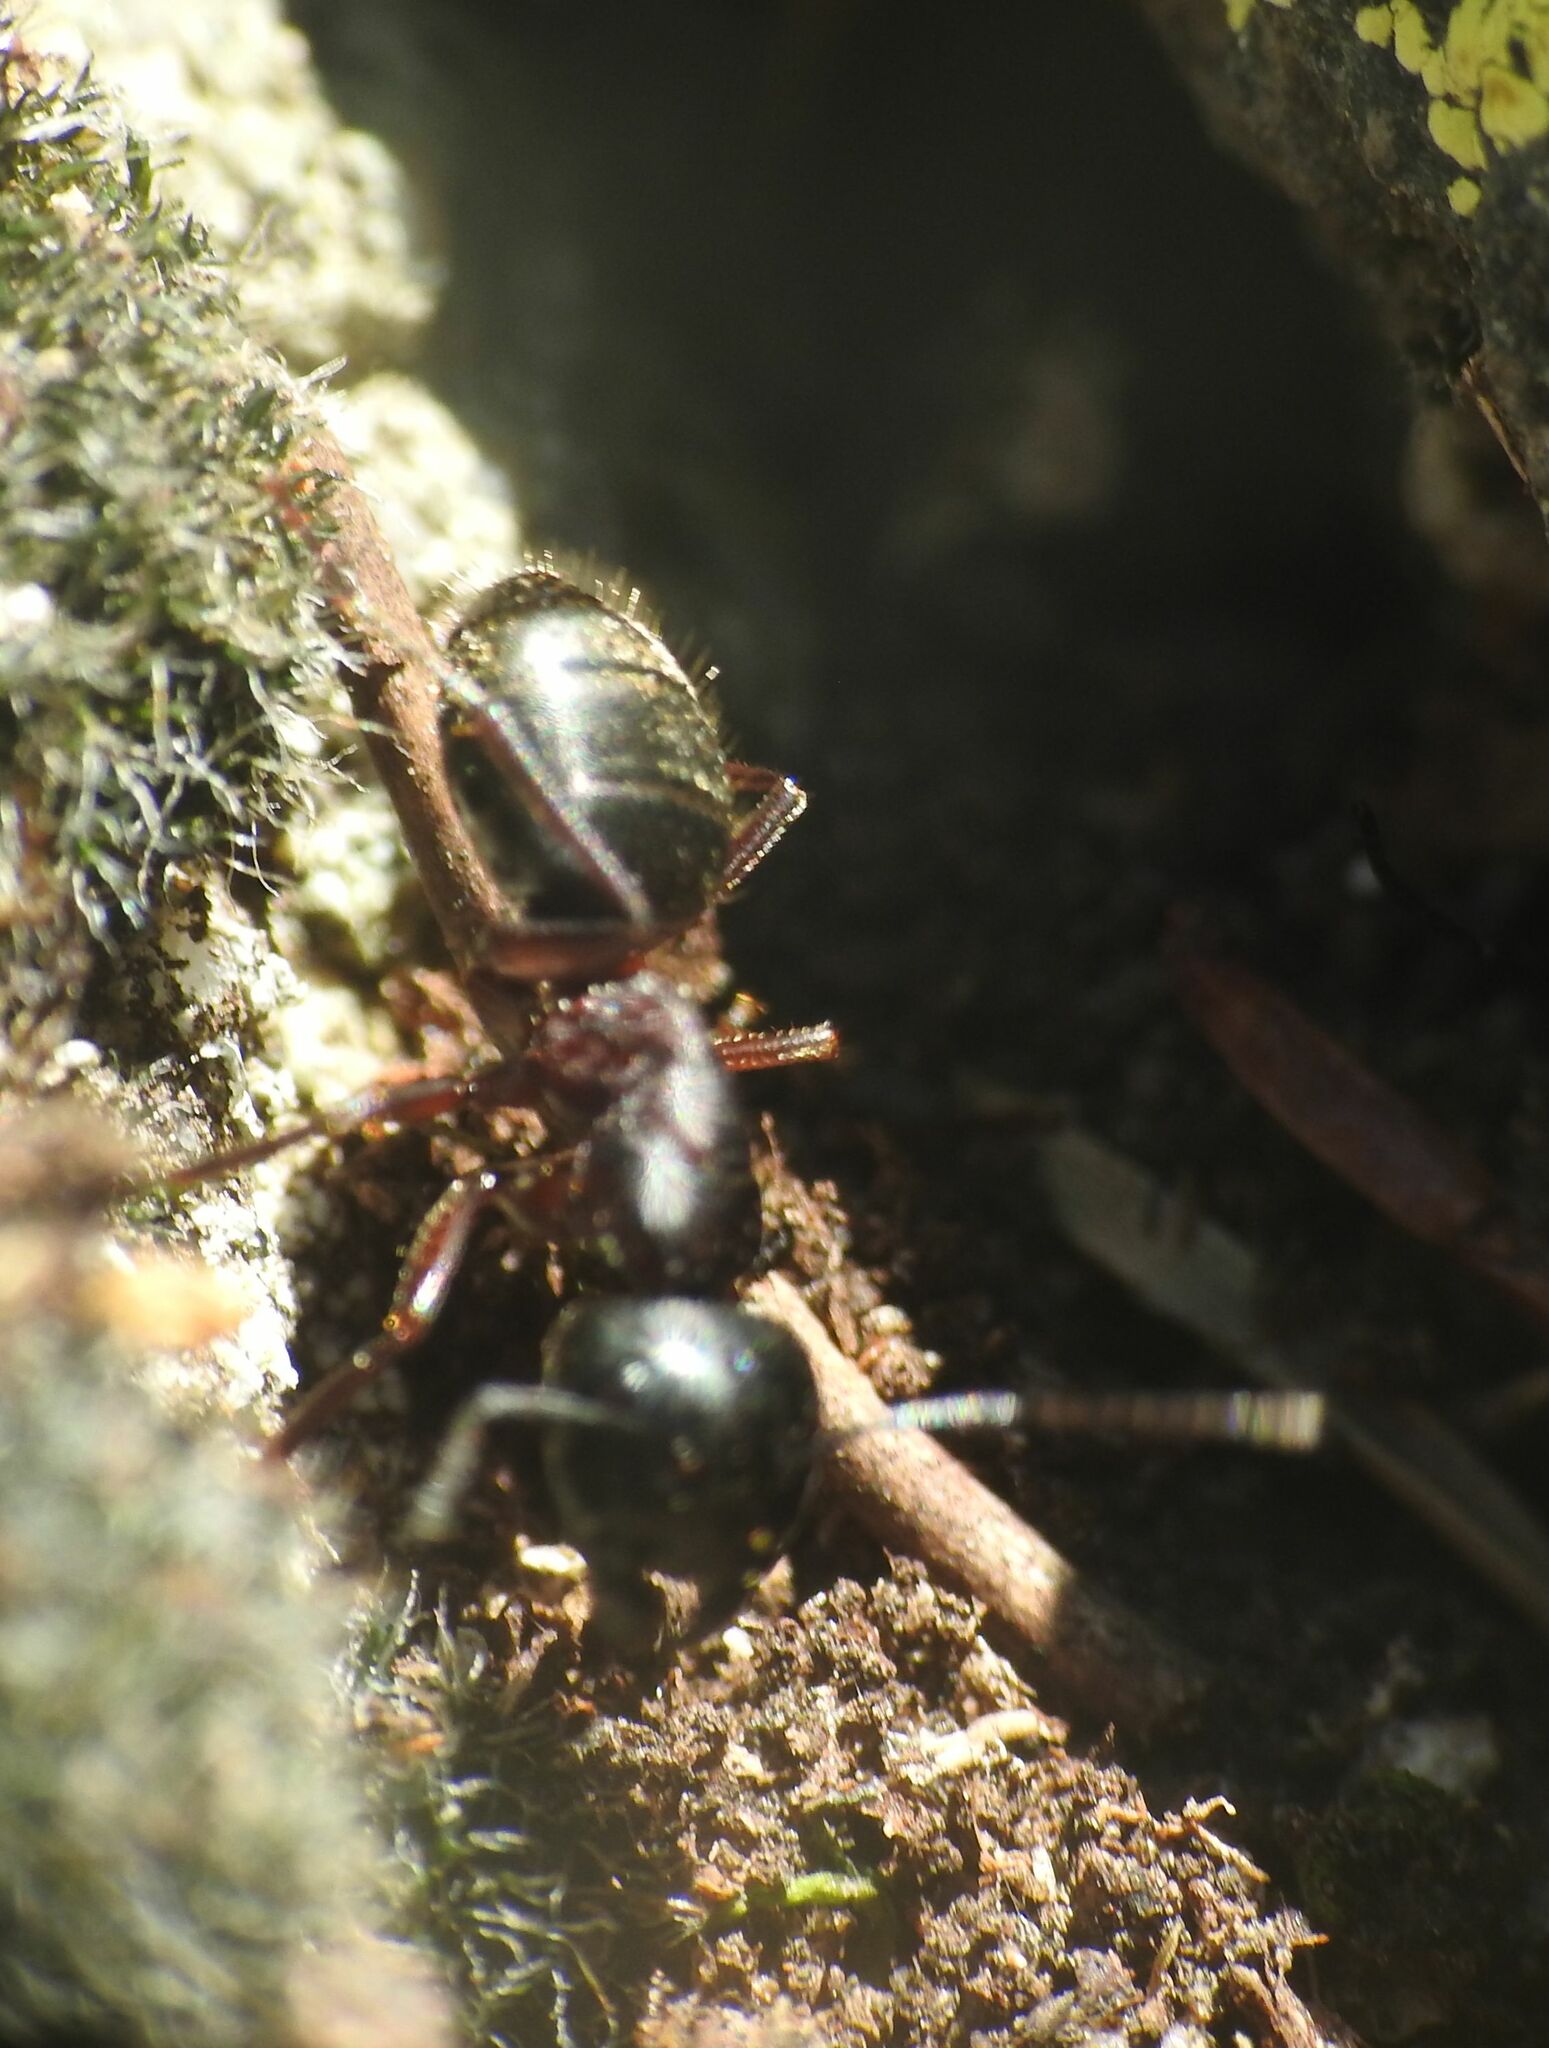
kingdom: Animalia
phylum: Arthropoda
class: Insecta
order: Hymenoptera
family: Formicidae
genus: Camponotus
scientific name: Camponotus herculeanus
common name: Hercules ant
